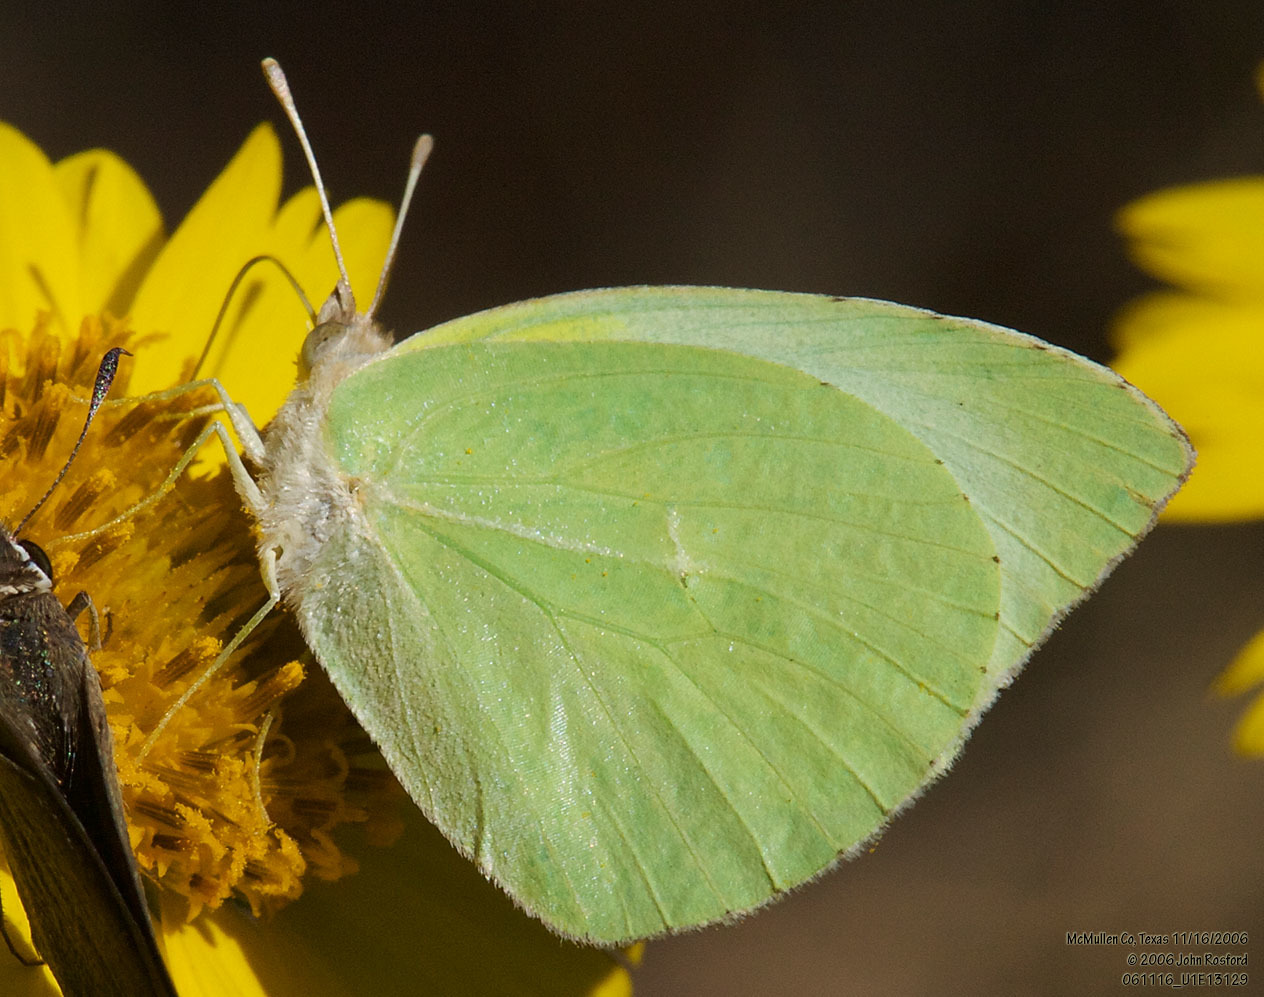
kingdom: Animalia
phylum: Arthropoda
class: Insecta
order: Lepidoptera
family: Pieridae
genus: Kricogonia
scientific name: Kricogonia lyside
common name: Guayacan sulphur,
